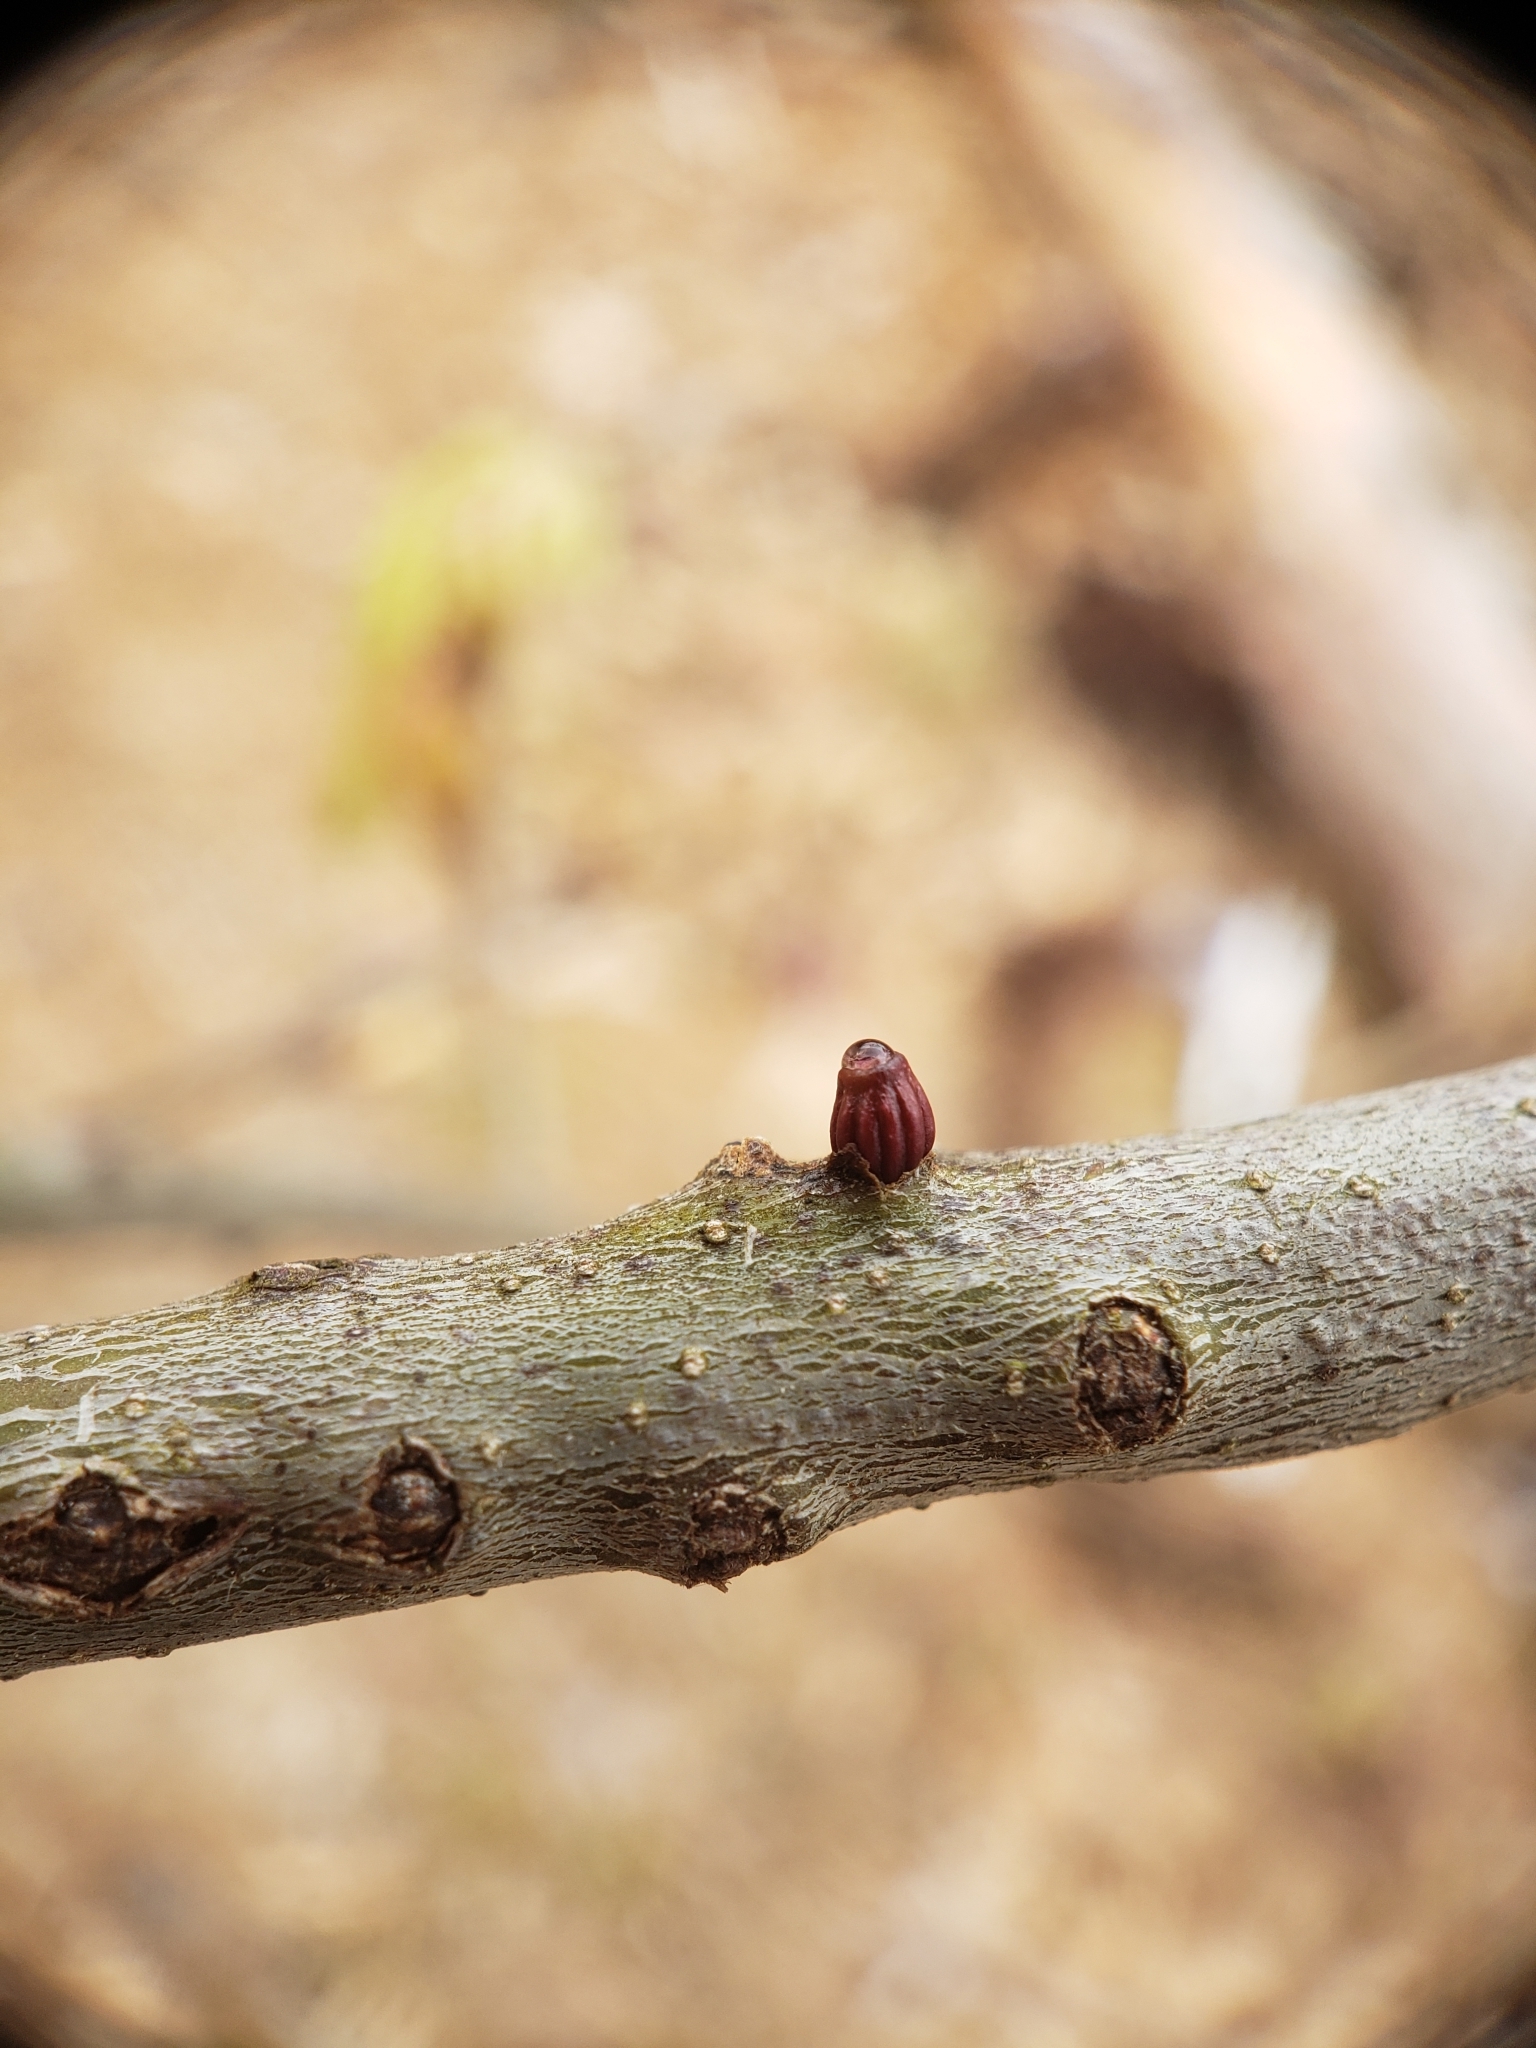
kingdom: Animalia
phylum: Arthropoda
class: Insecta
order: Hymenoptera
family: Cynipidae
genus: Callirhytis
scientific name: Callirhytis
